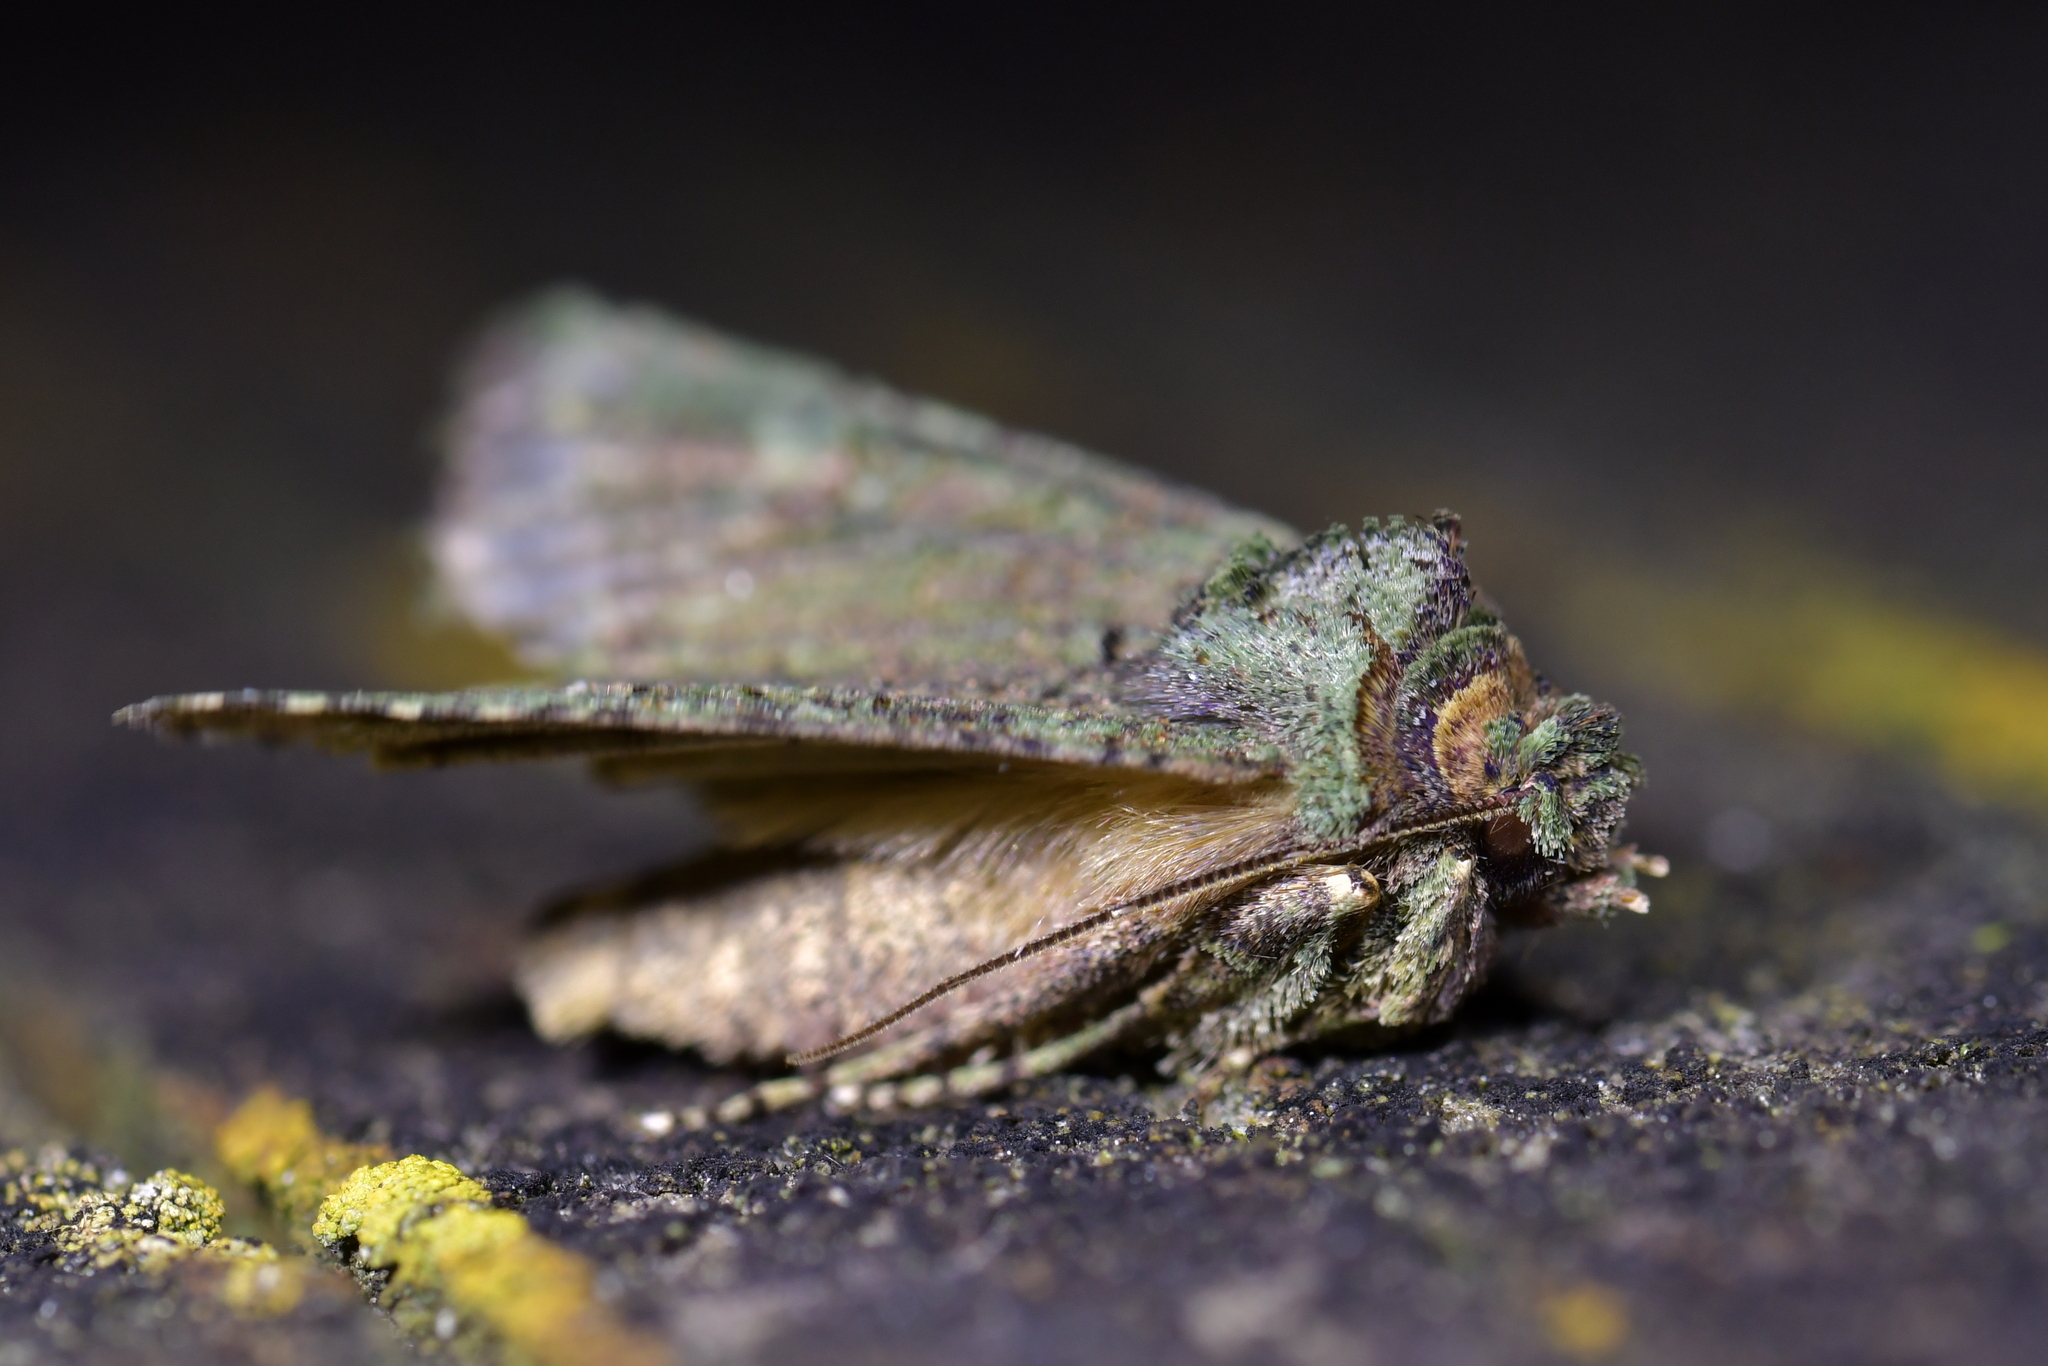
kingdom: Animalia
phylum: Arthropoda
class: Insecta
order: Lepidoptera
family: Noctuidae
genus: Meterana
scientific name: Meterana levis
